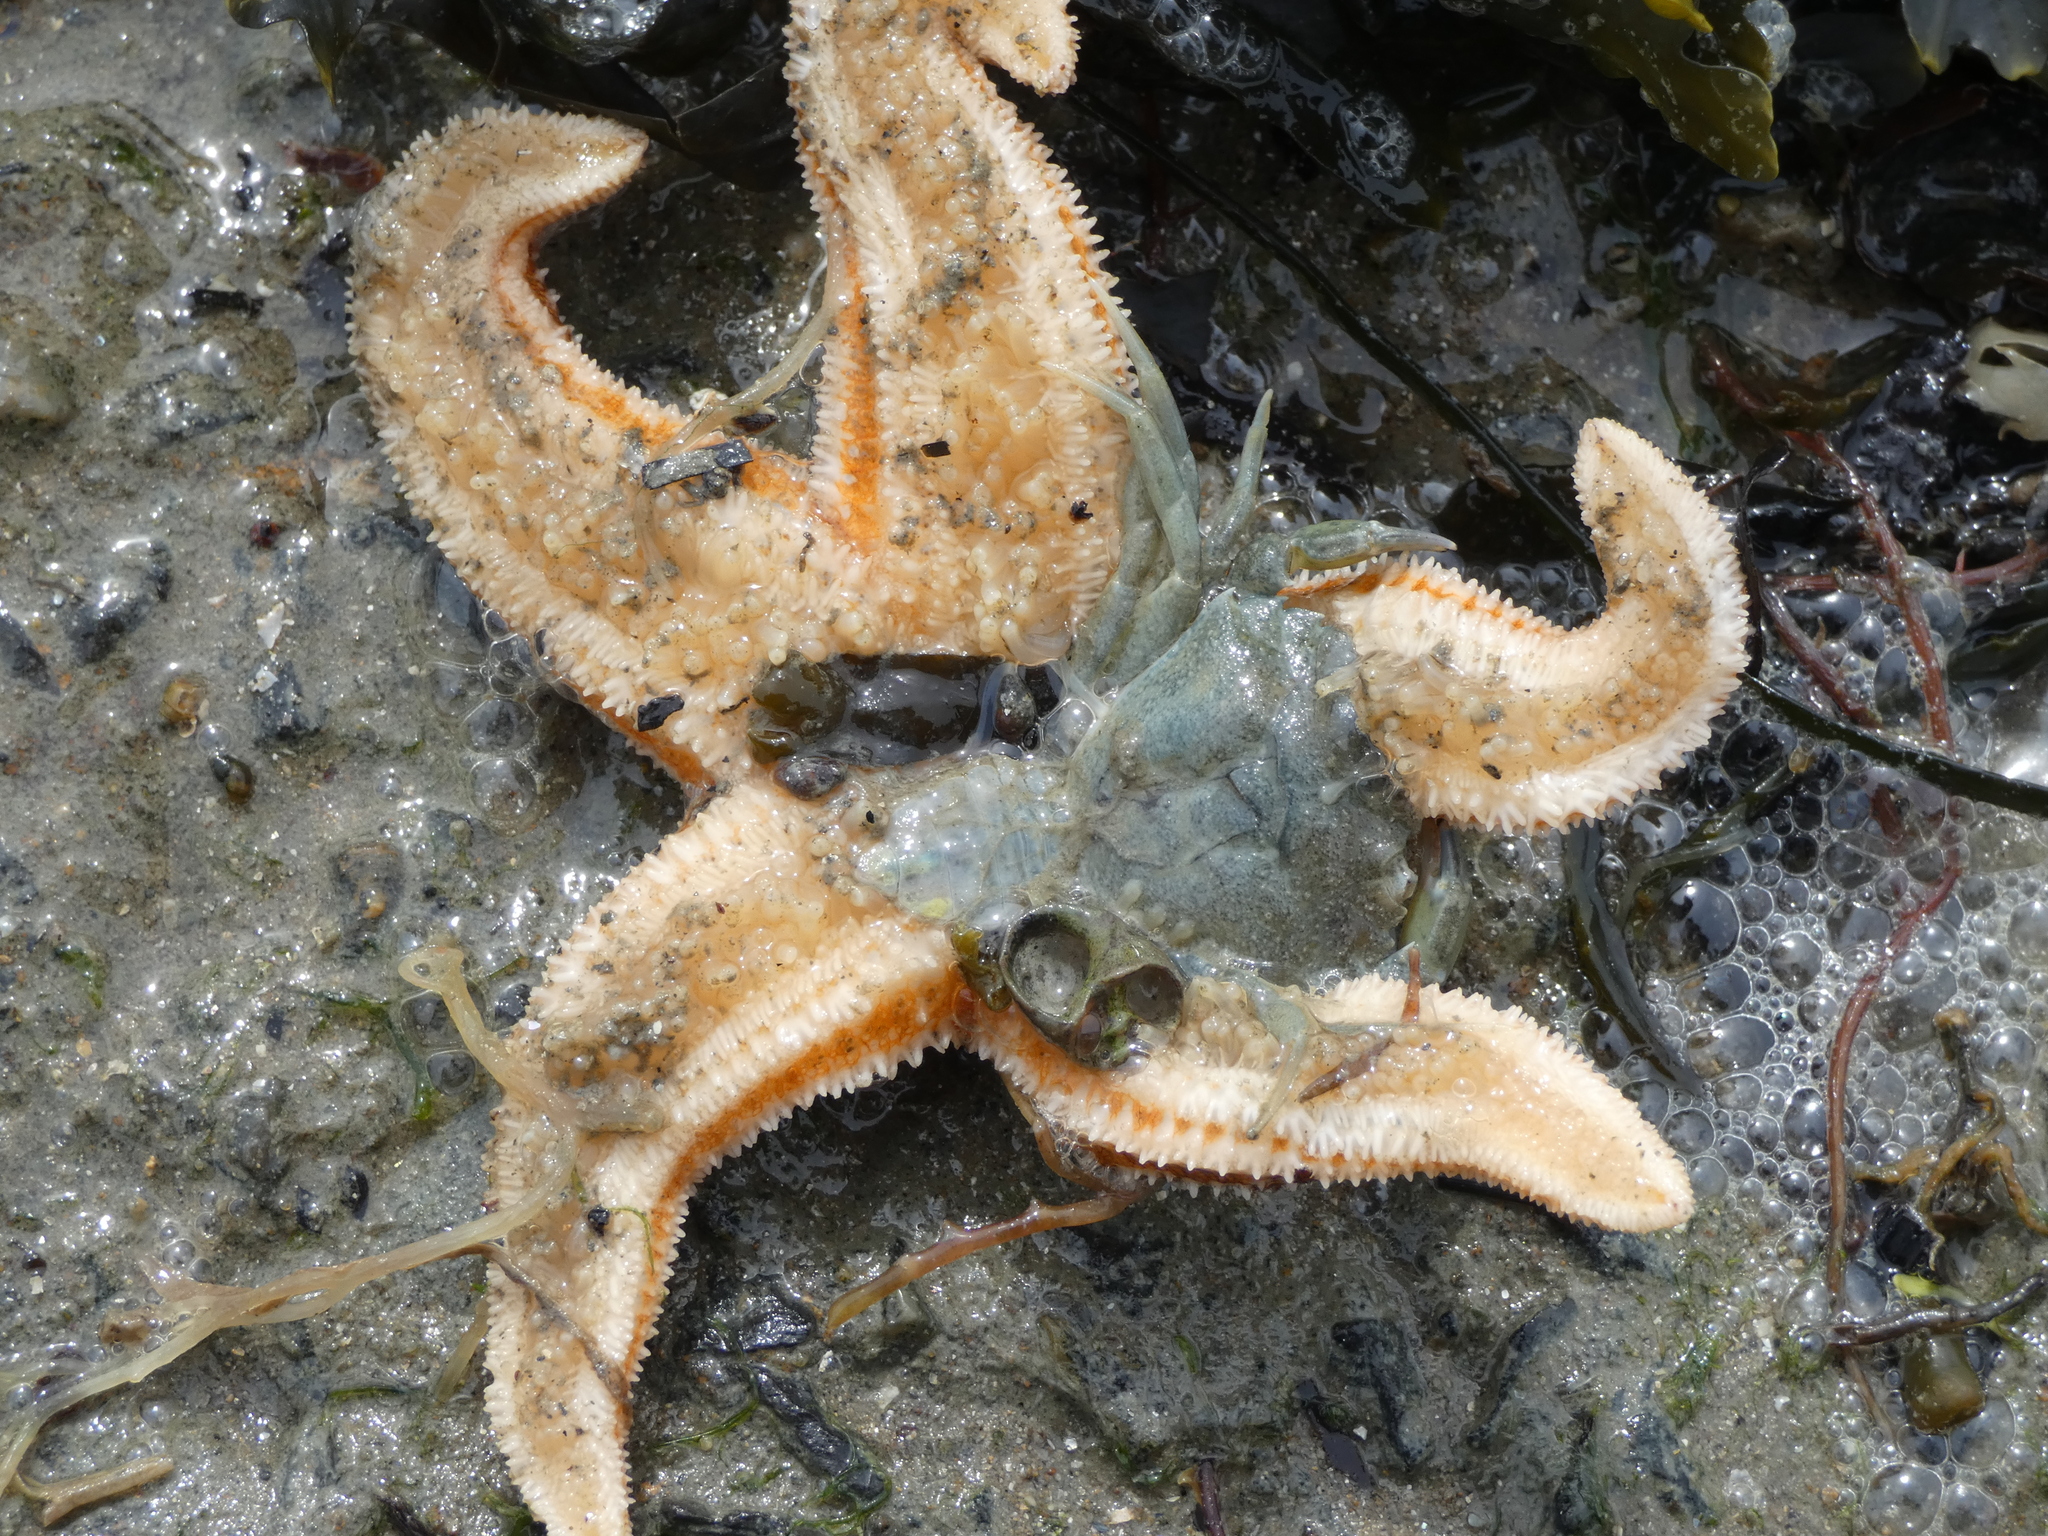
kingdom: Animalia
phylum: Arthropoda
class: Malacostraca
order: Decapoda
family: Carcinidae
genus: Carcinus
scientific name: Carcinus maenas
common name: European green crab
